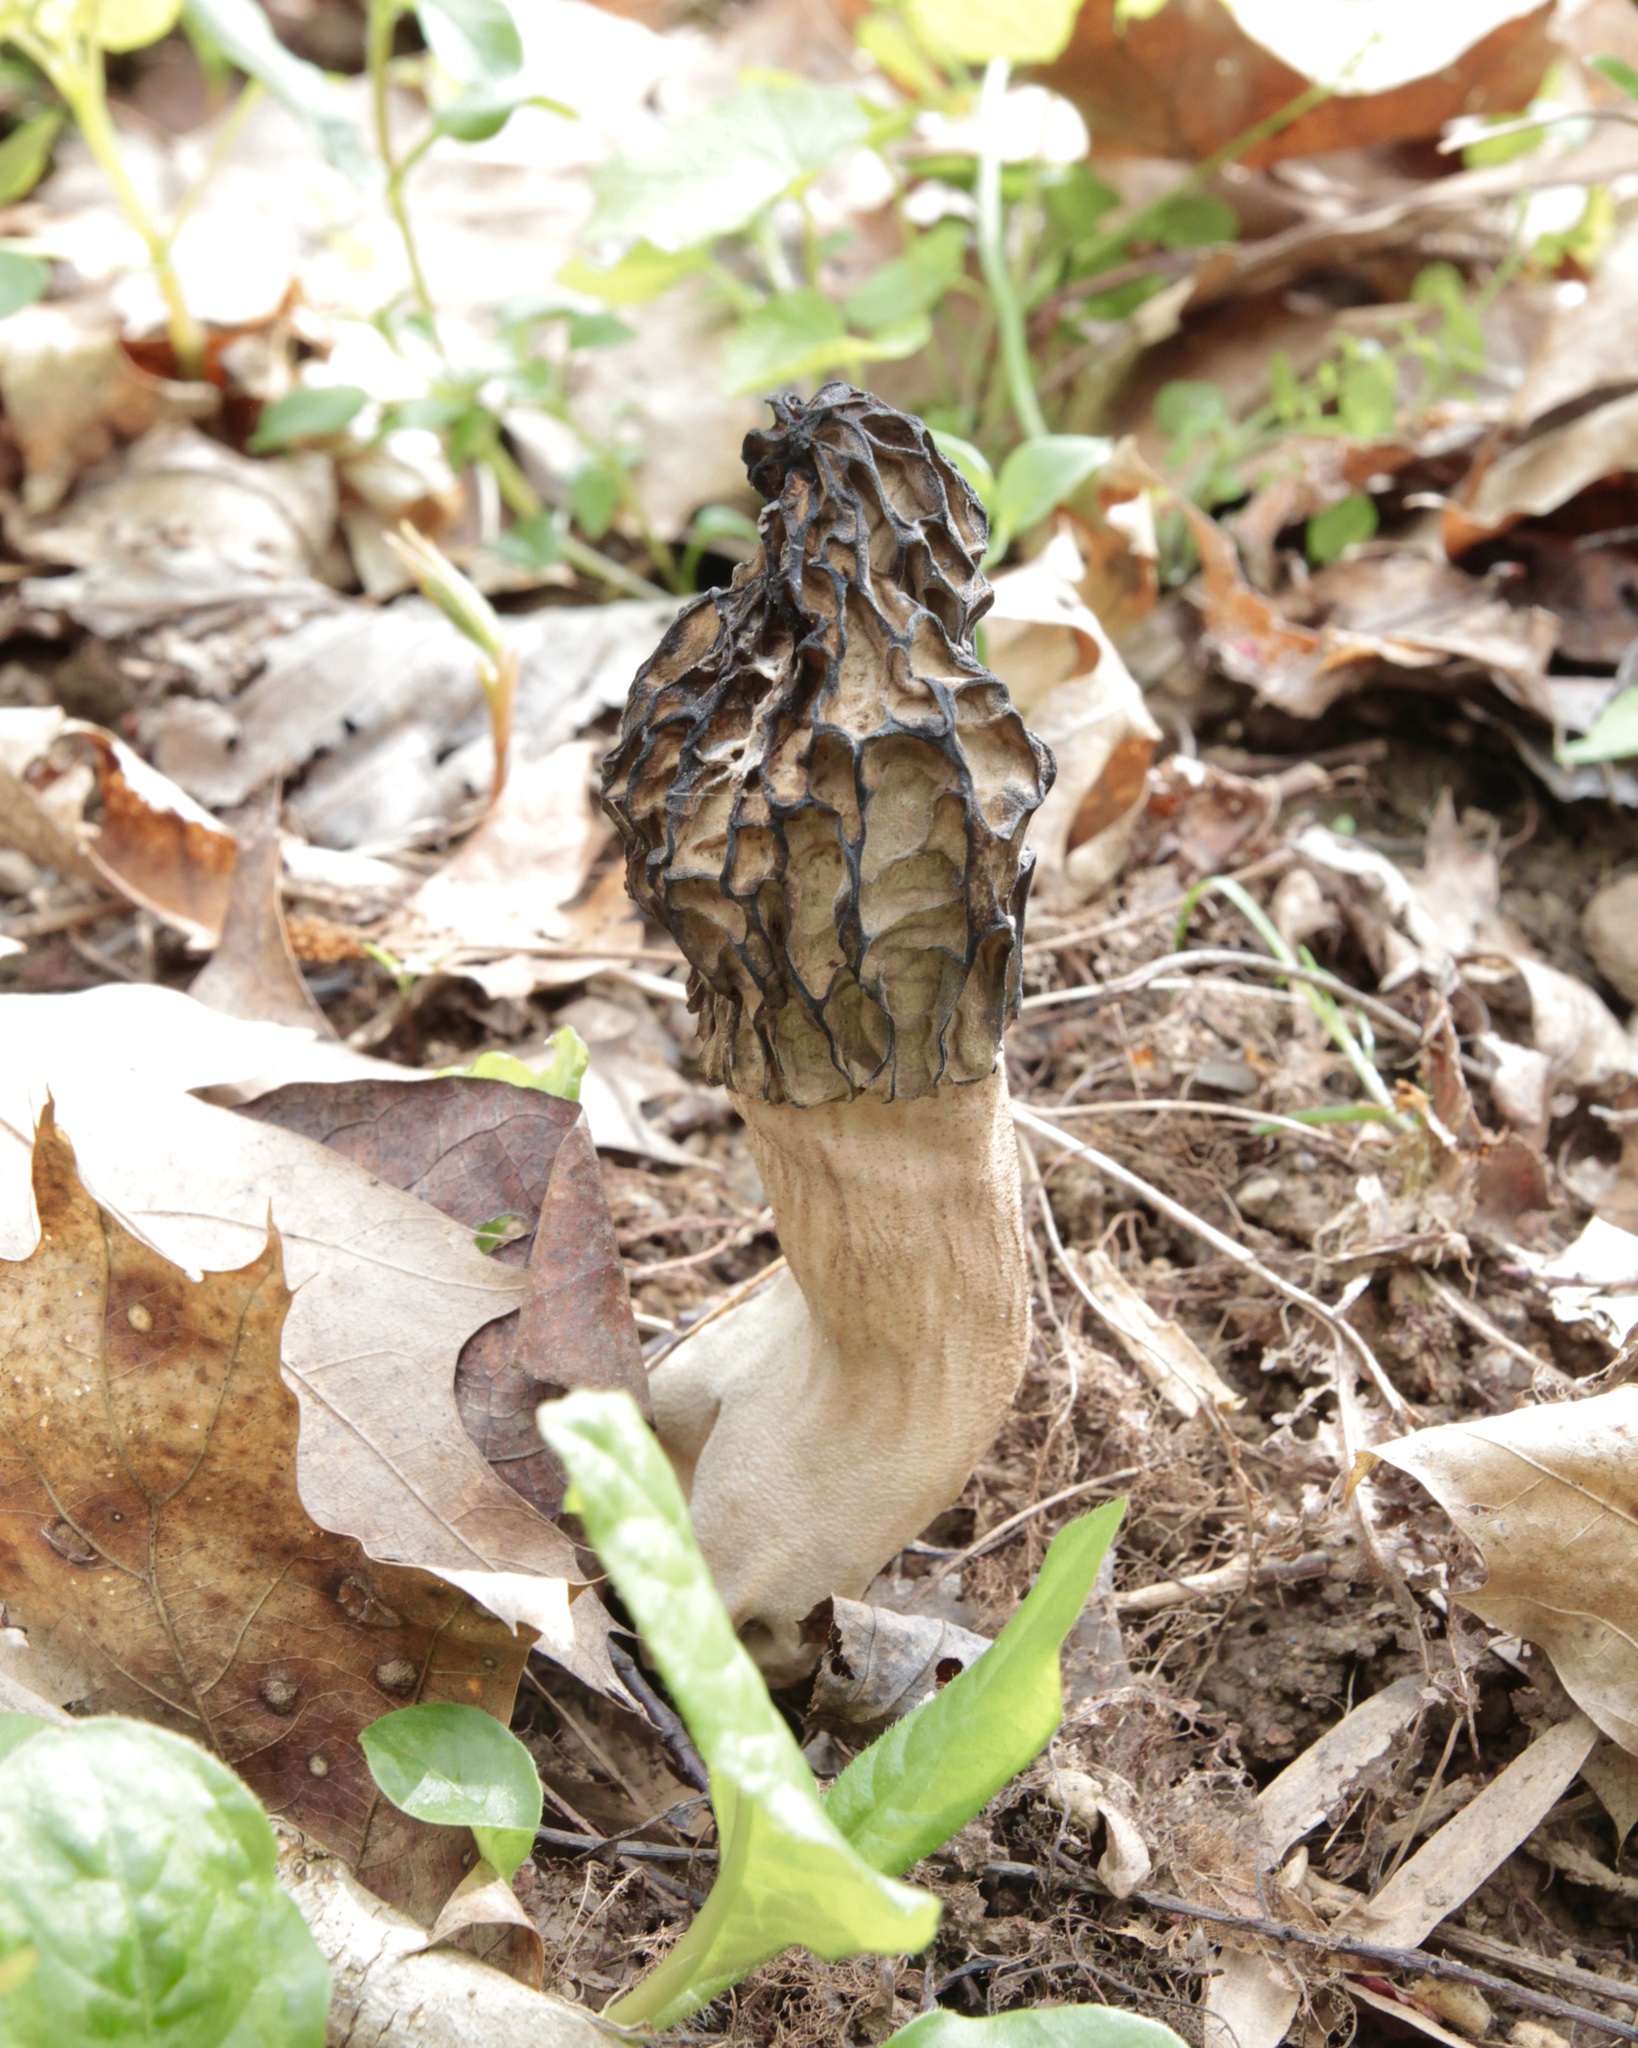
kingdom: Fungi
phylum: Ascomycota
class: Pezizomycetes
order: Pezizales
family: Morchellaceae
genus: Morchella
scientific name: Morchella angusticeps
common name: Black morel
